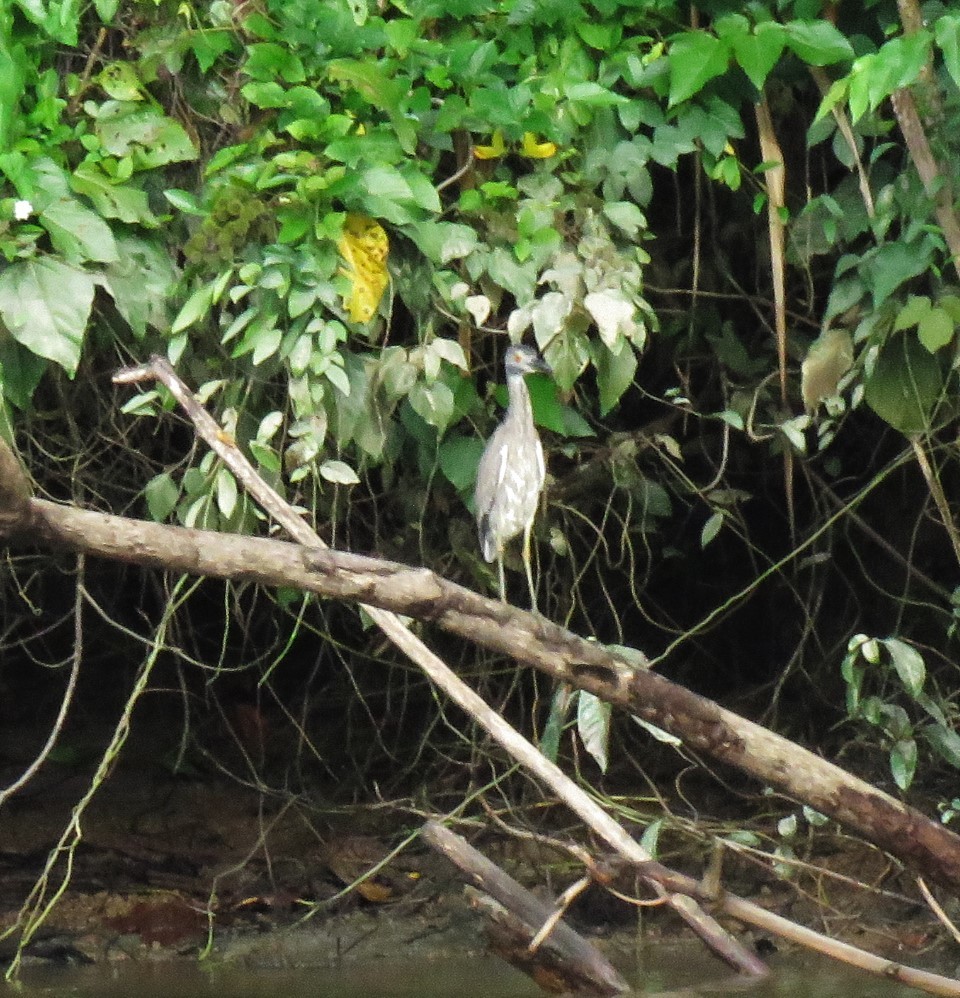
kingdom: Animalia
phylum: Chordata
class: Aves
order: Pelecaniformes
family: Ardeidae
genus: Nyctanassa
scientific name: Nyctanassa violacea
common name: Yellow-crowned night heron
